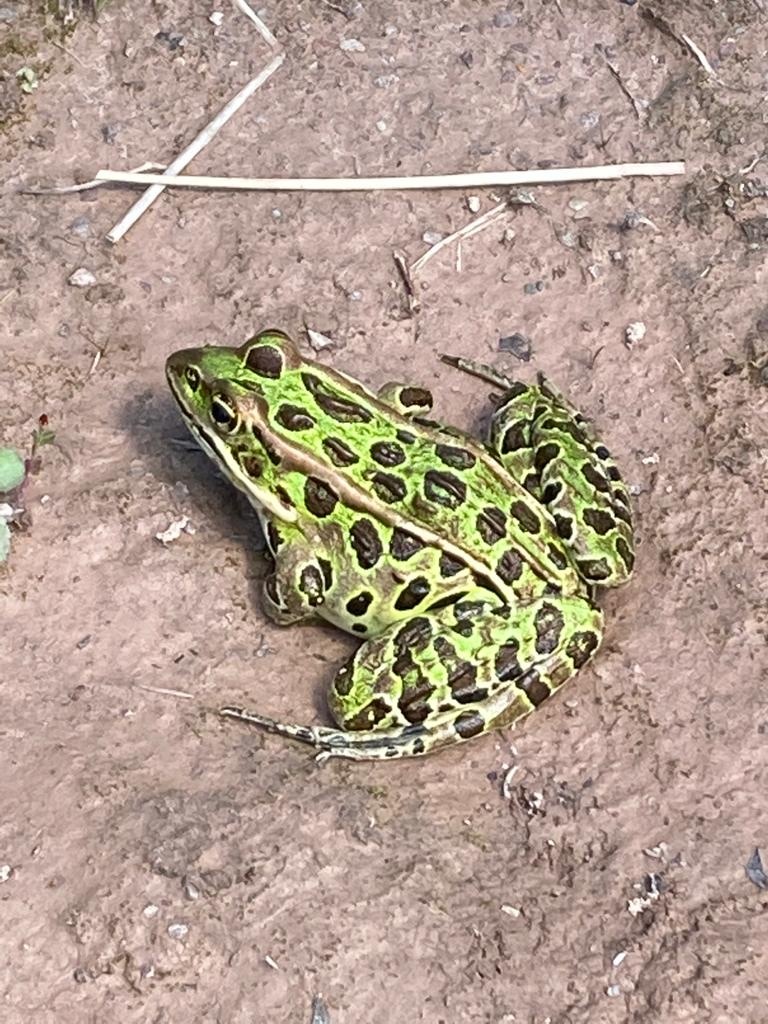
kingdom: Animalia
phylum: Chordata
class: Amphibia
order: Anura
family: Ranidae
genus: Lithobates
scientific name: Lithobates pipiens
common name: Northern leopard frog
